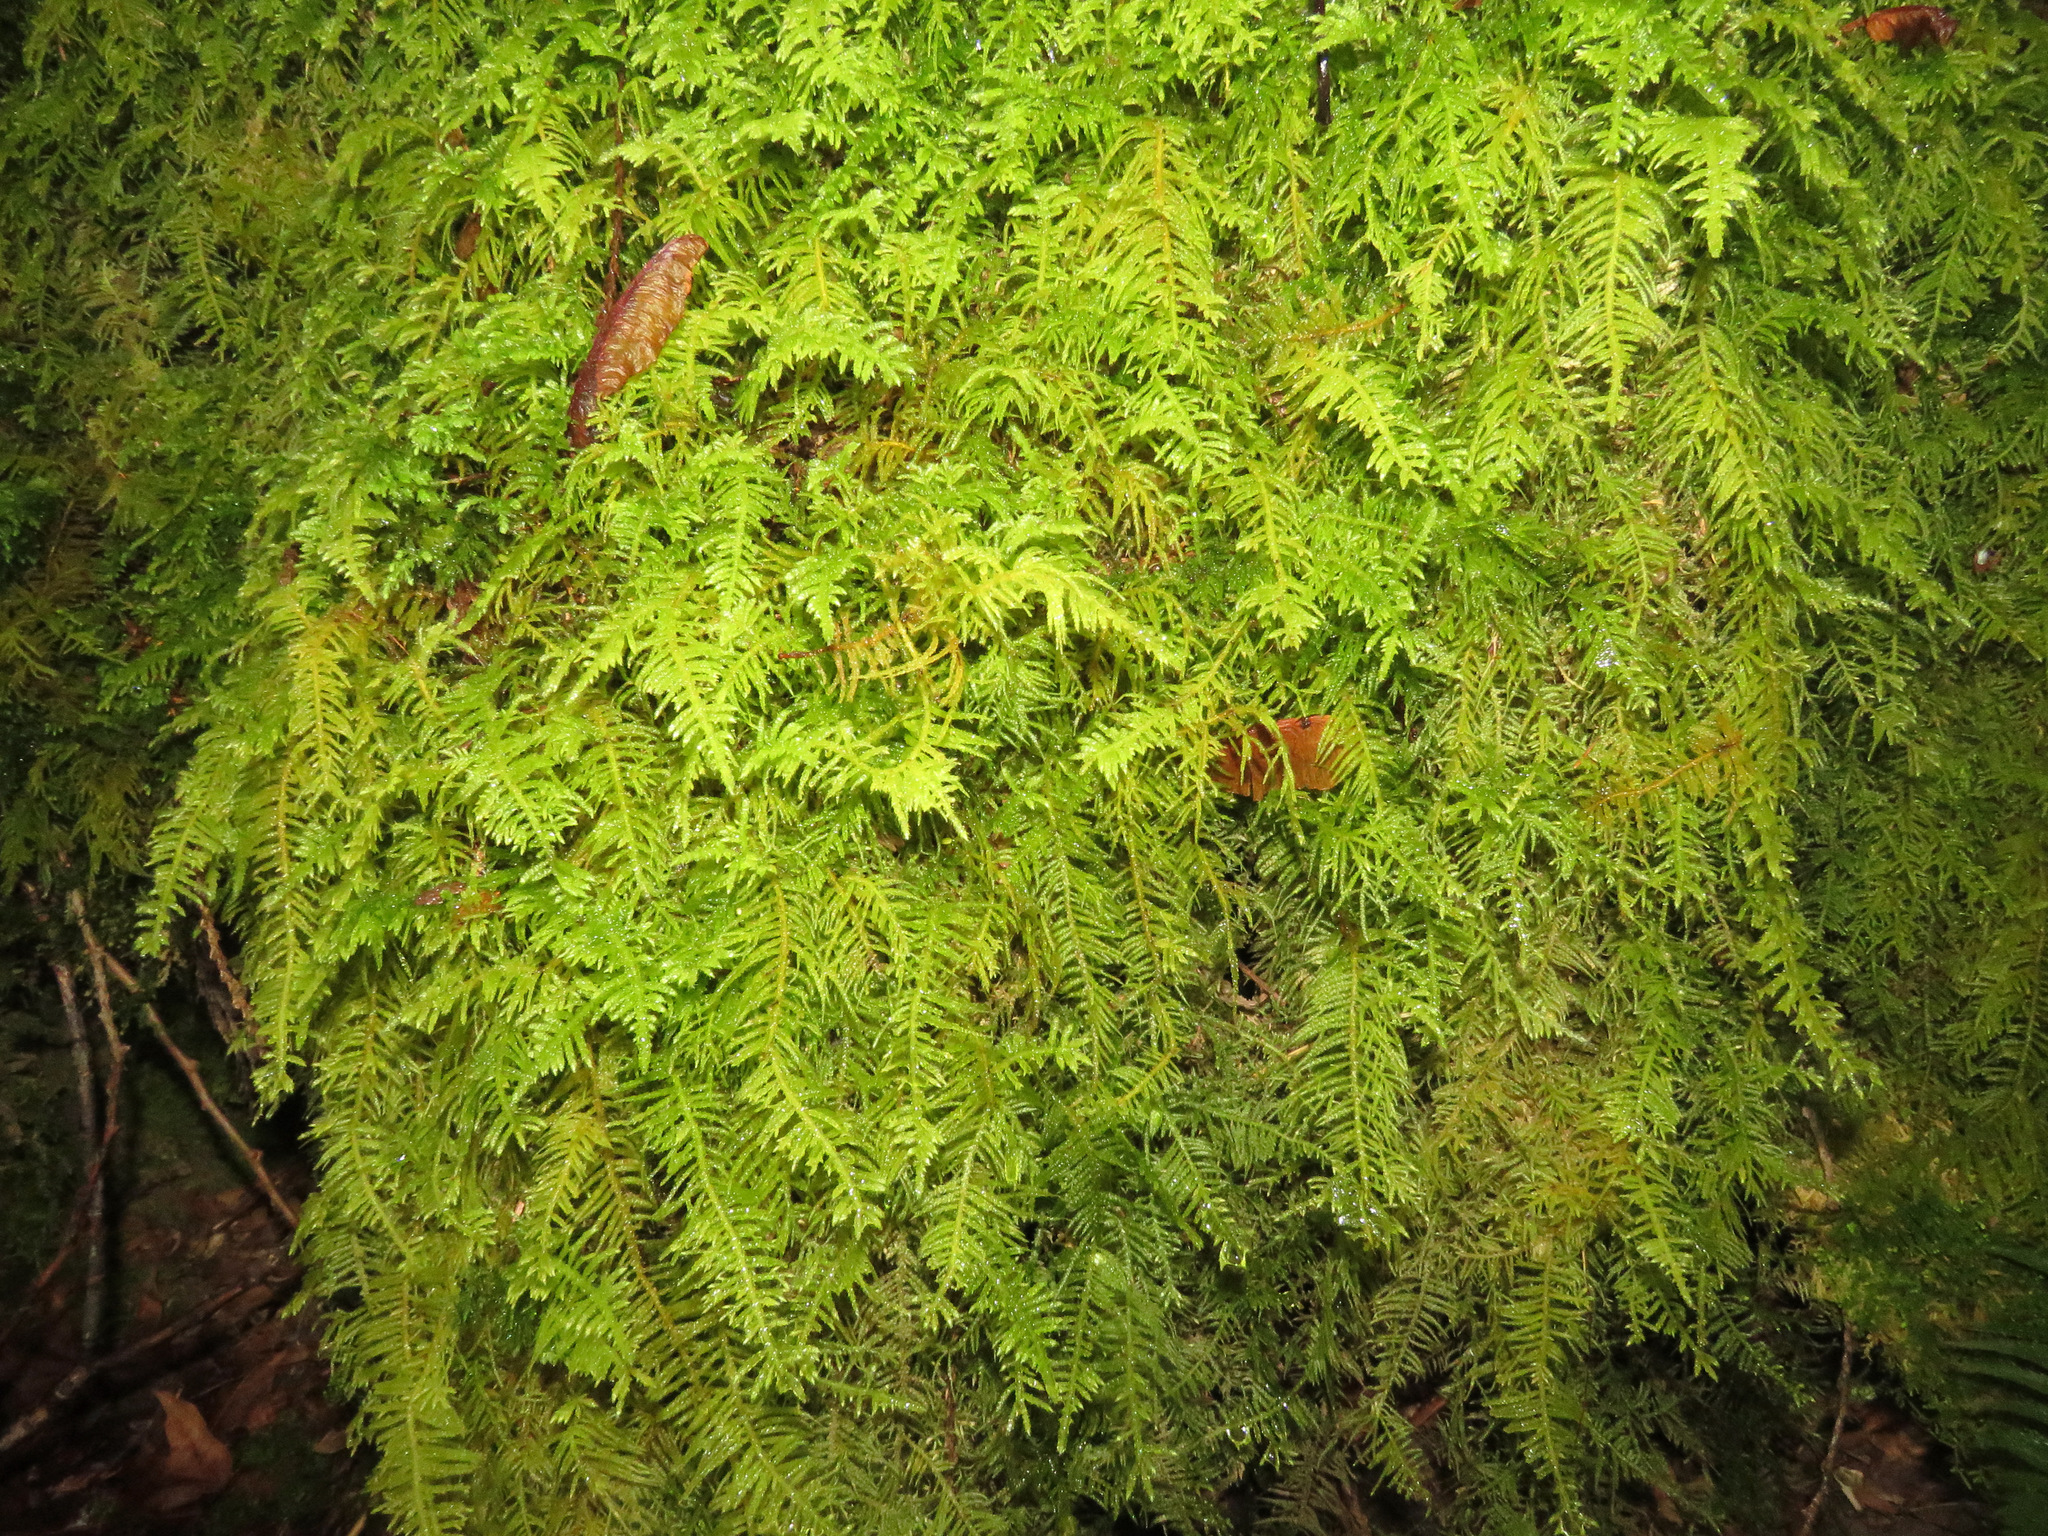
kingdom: Plantae
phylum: Bryophyta
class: Bryopsida
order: Hypnales
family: Brachytheciaceae
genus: Kindbergia
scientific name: Kindbergia oregana
